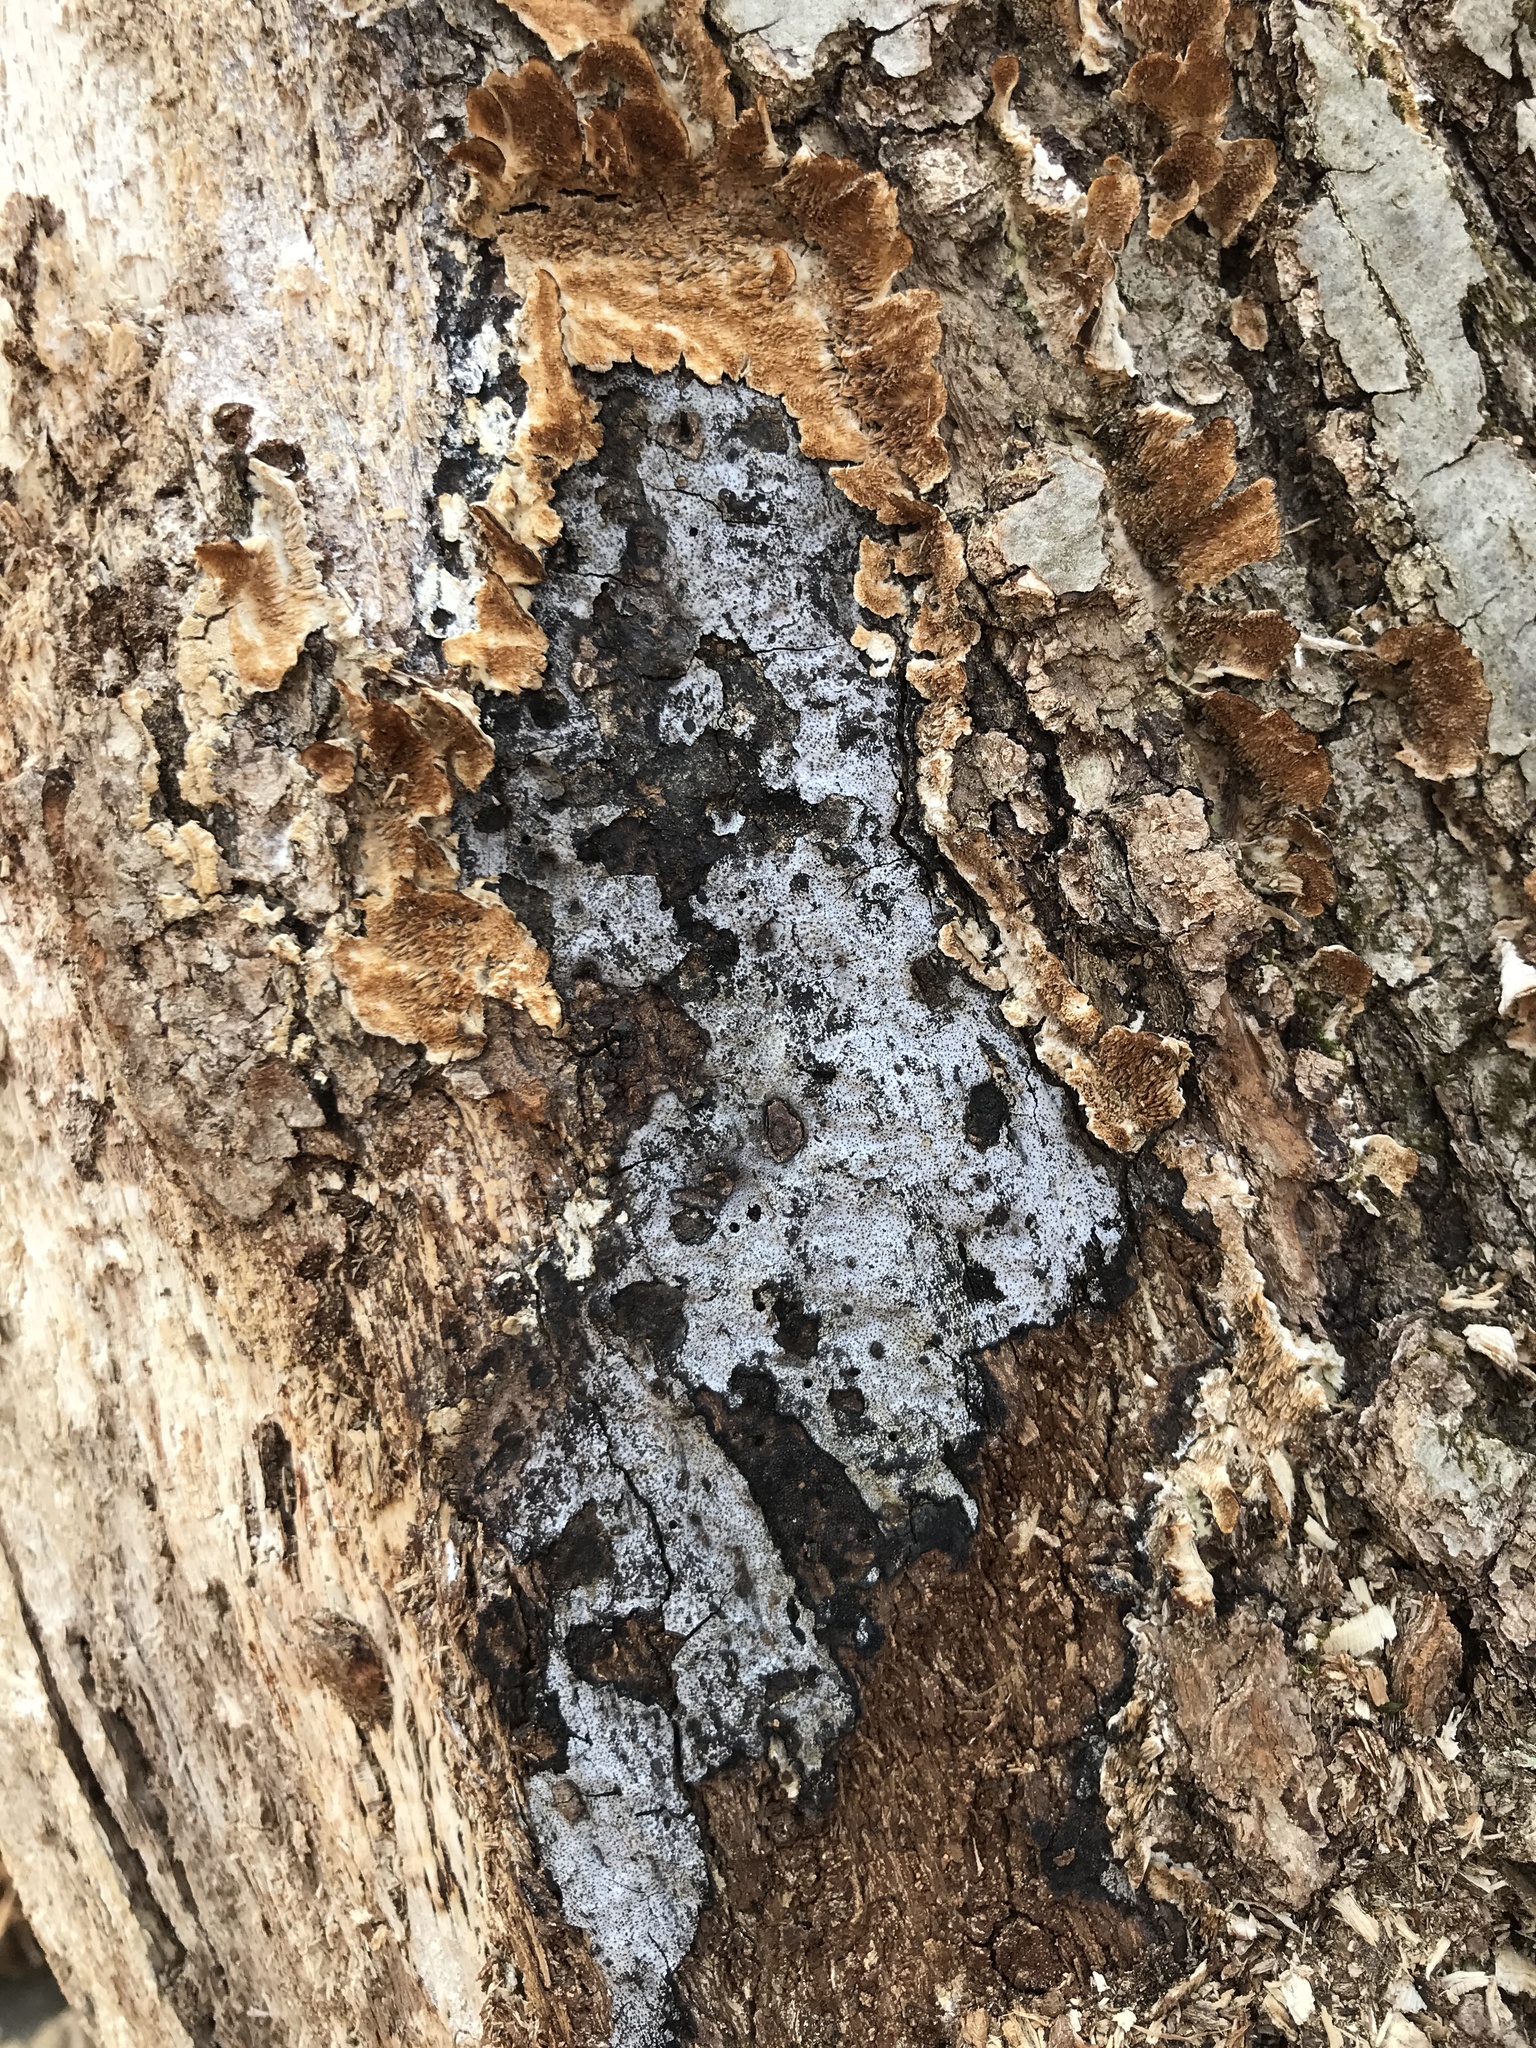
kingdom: Fungi
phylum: Ascomycota
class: Sordariomycetes
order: Xylariales
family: Graphostromataceae
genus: Biscogniauxia
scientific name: Biscogniauxia atropunctata
